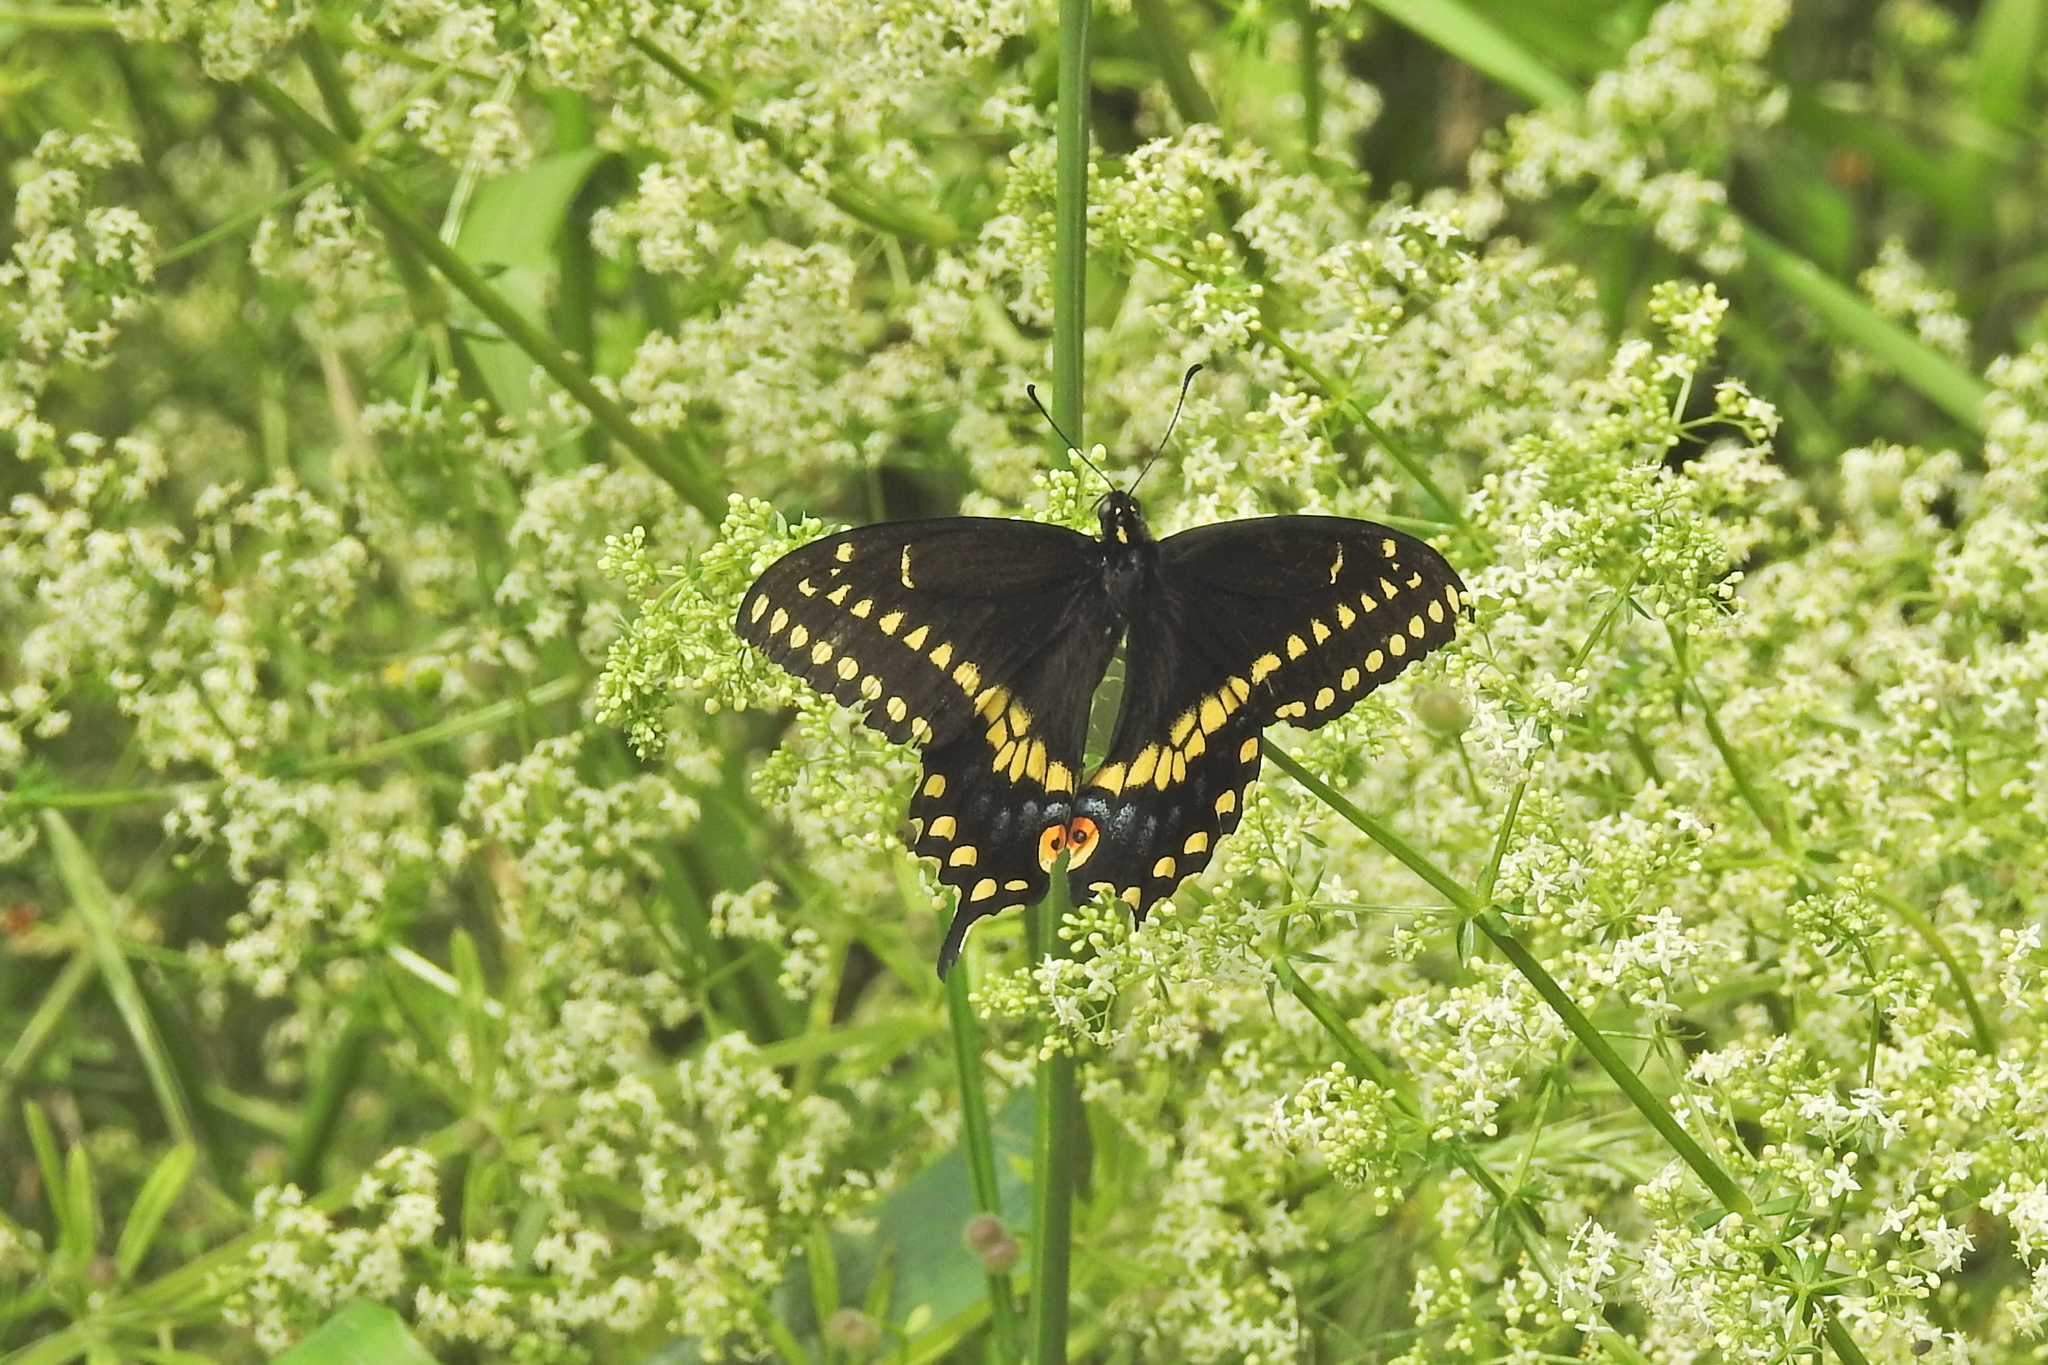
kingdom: Animalia
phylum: Arthropoda
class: Insecta
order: Lepidoptera
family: Papilionidae
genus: Papilio
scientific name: Papilio polyxenes
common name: Black swallowtail
